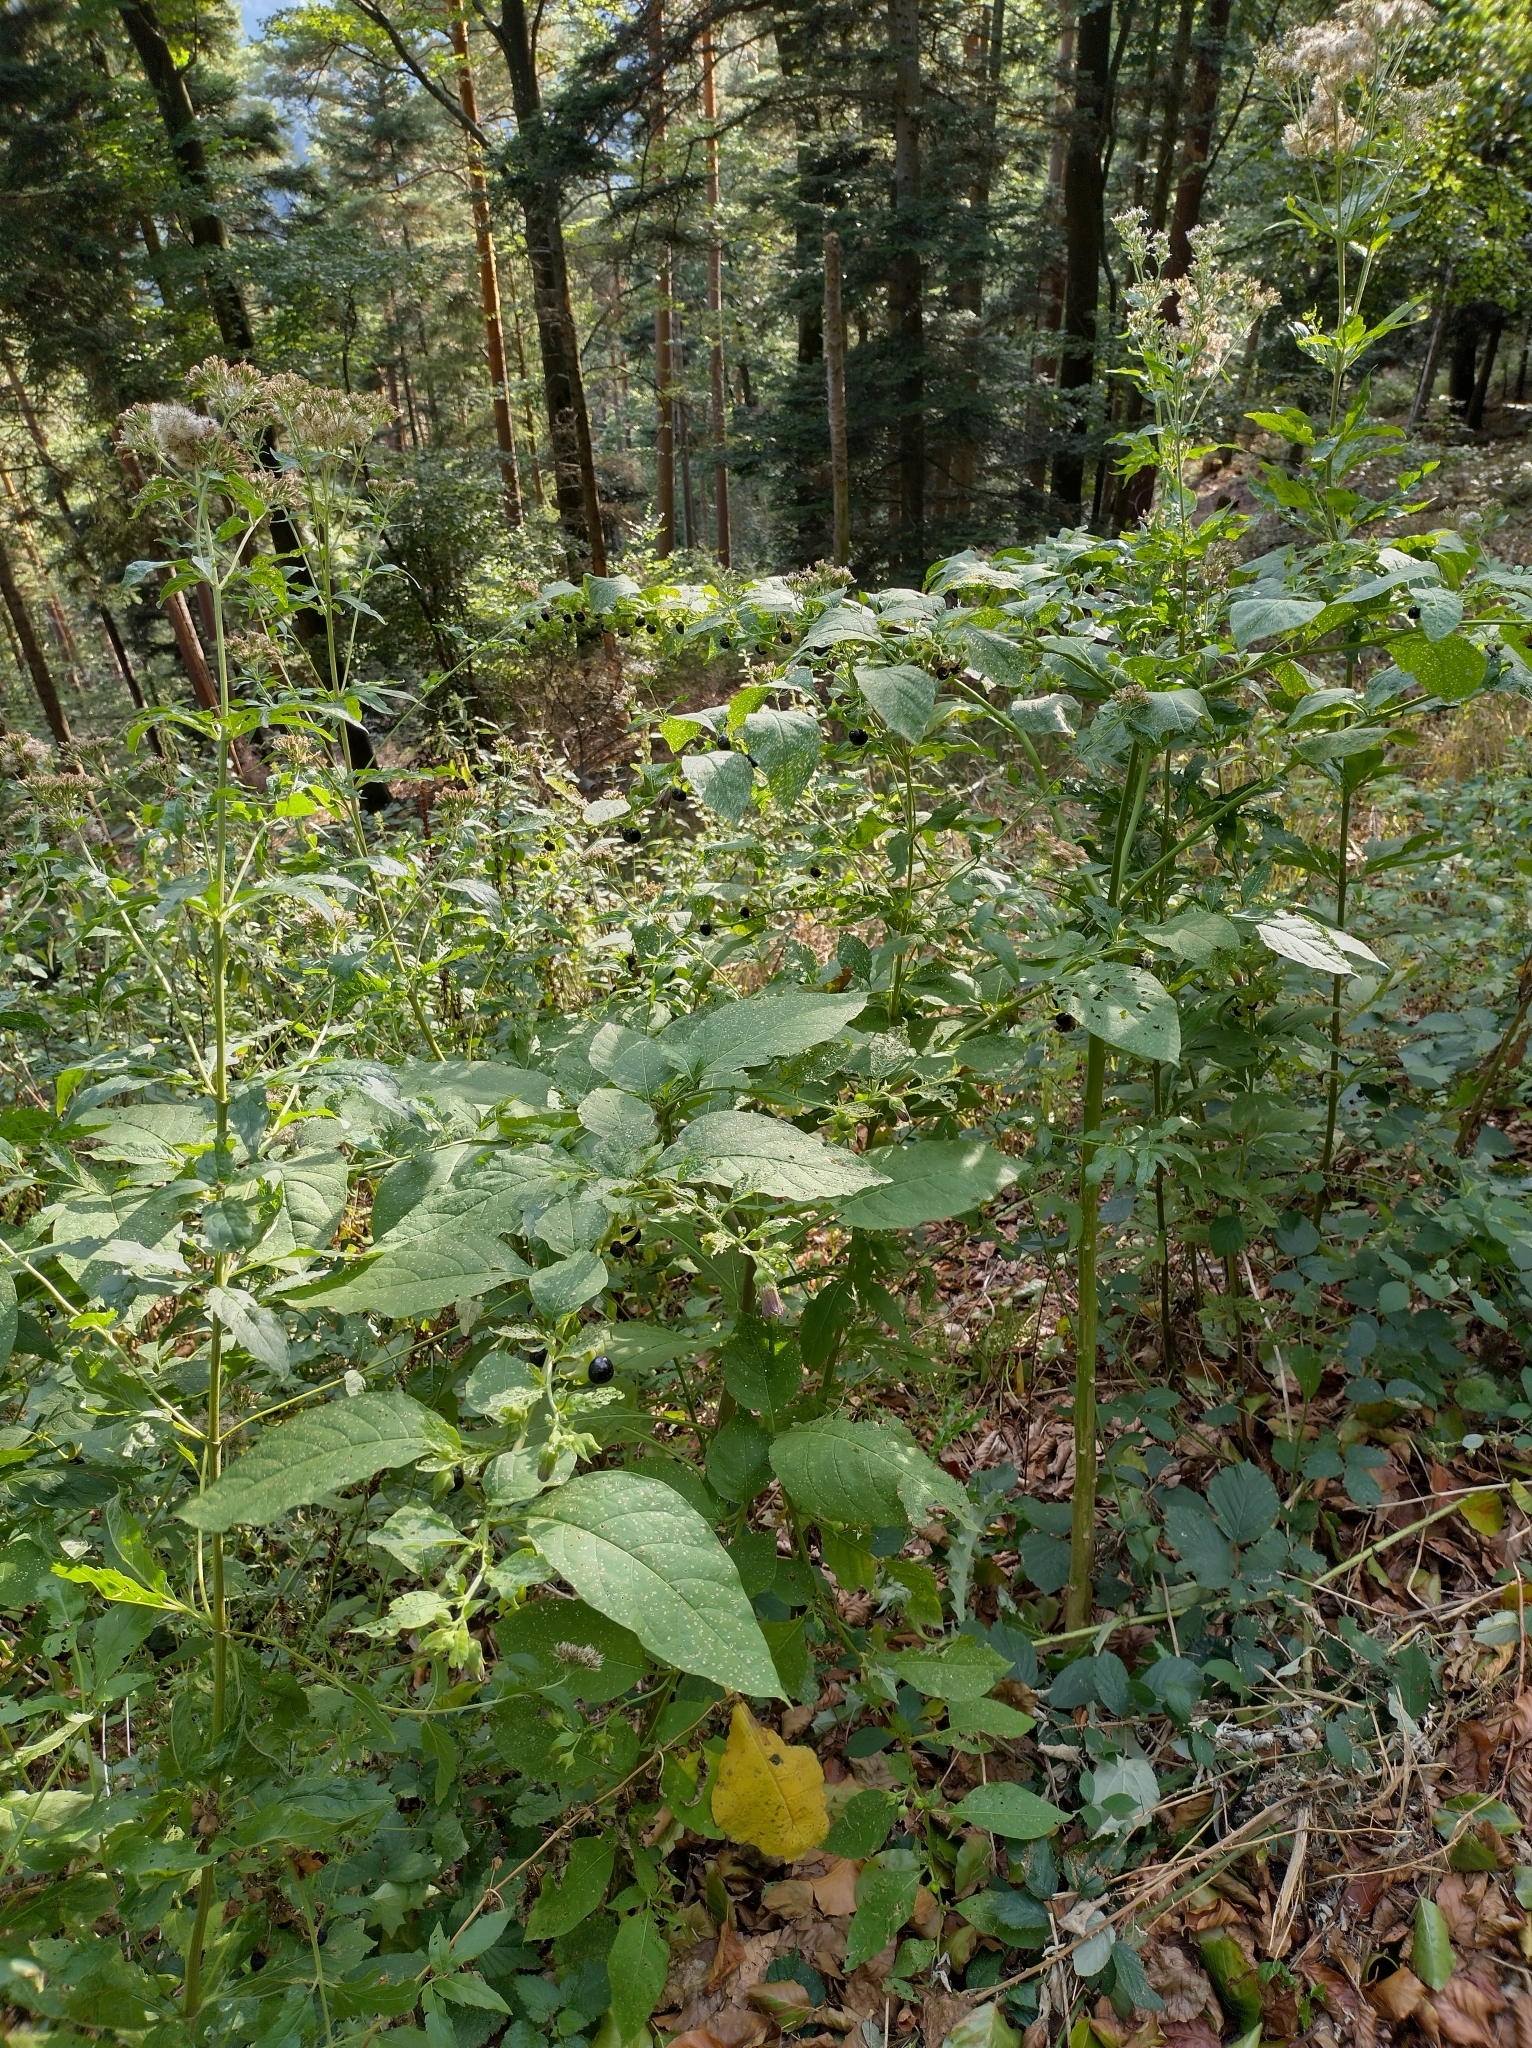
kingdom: Plantae
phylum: Tracheophyta
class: Magnoliopsida
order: Solanales
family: Solanaceae
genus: Atropa
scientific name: Atropa belladonna
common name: Deadly nightshade
